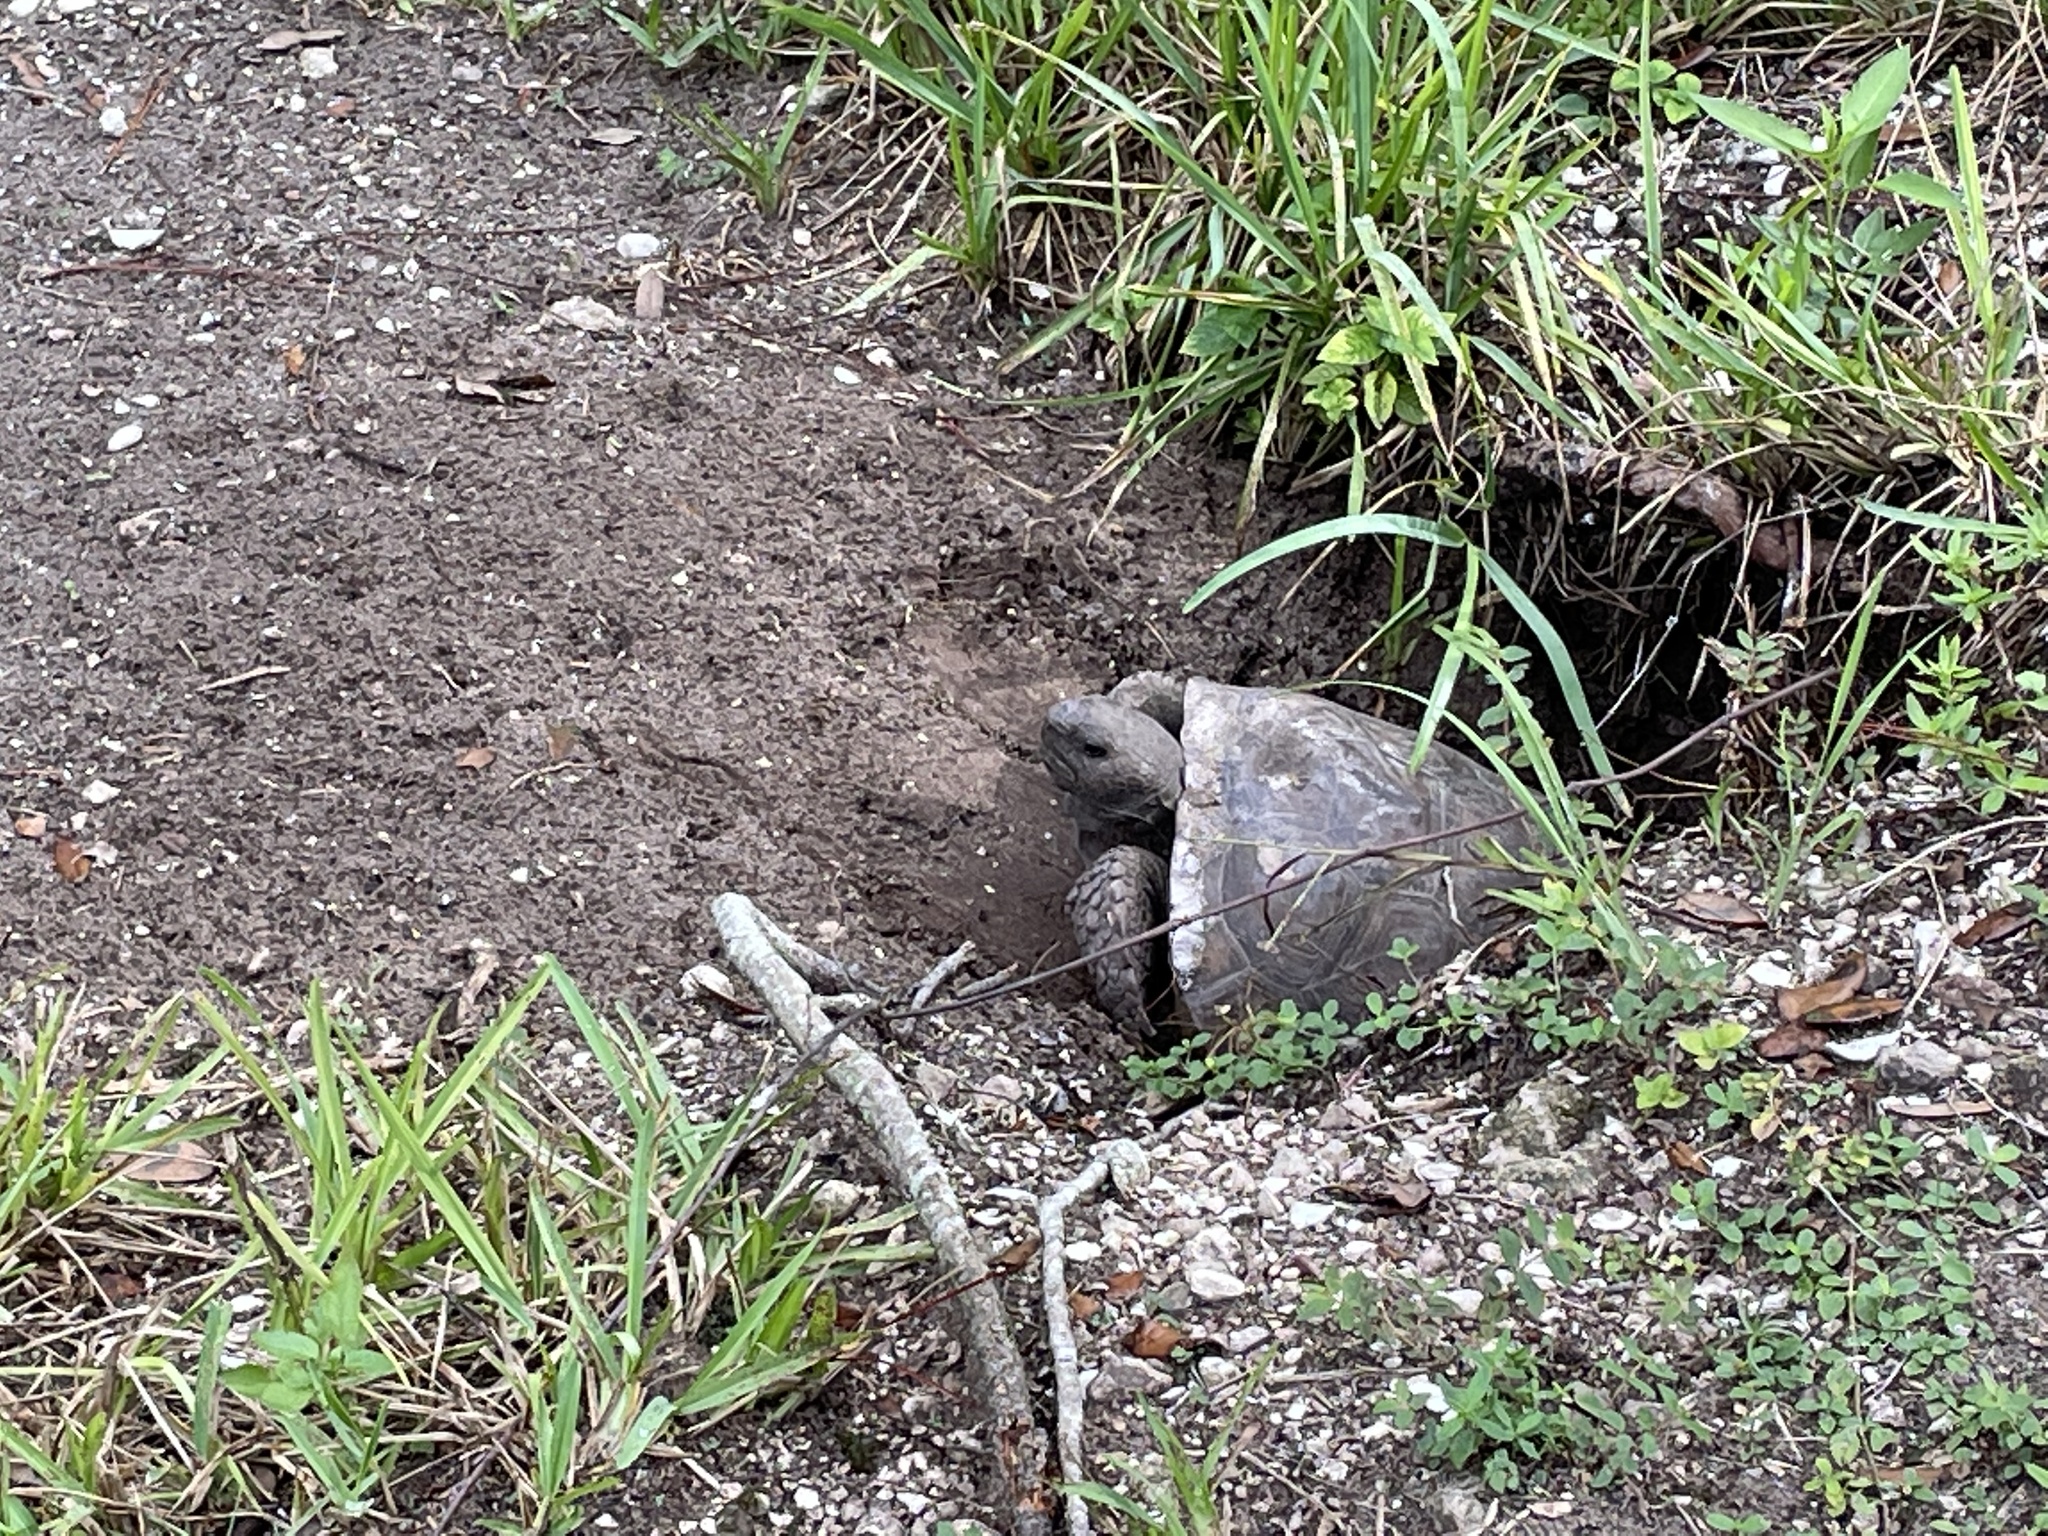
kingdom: Animalia
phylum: Chordata
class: Testudines
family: Testudinidae
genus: Gopherus
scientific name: Gopherus polyphemus
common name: Florida gopher tortoise
